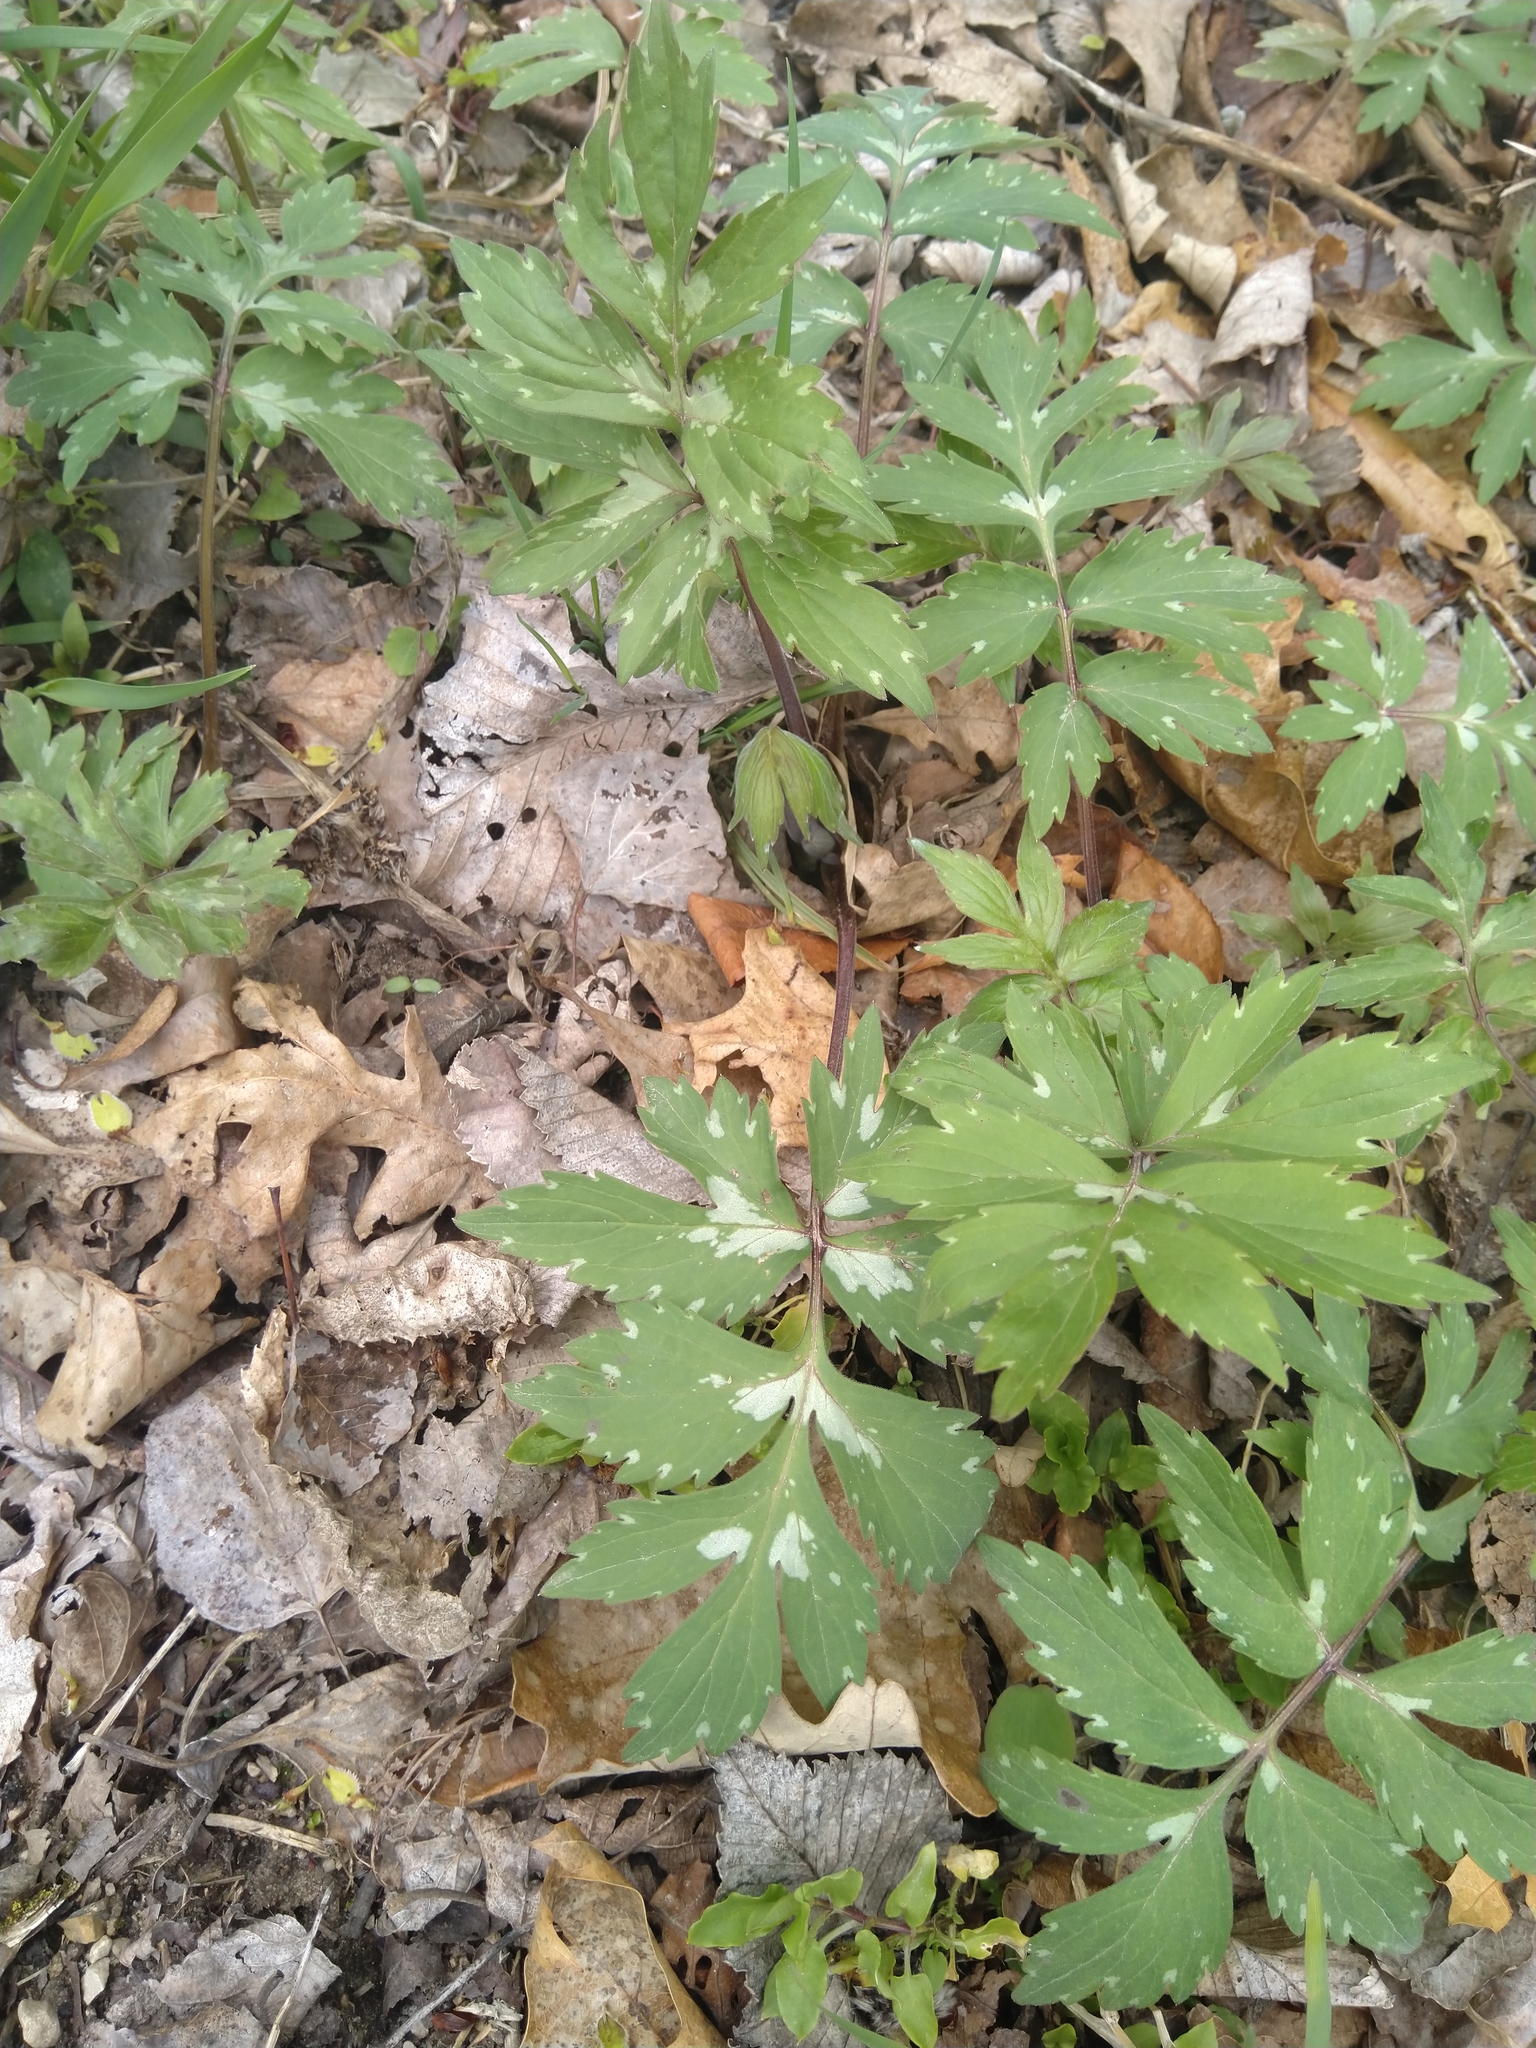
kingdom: Plantae
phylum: Tracheophyta
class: Magnoliopsida
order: Boraginales
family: Hydrophyllaceae
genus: Hydrophyllum
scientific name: Hydrophyllum virginianum
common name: Virginia waterleaf
